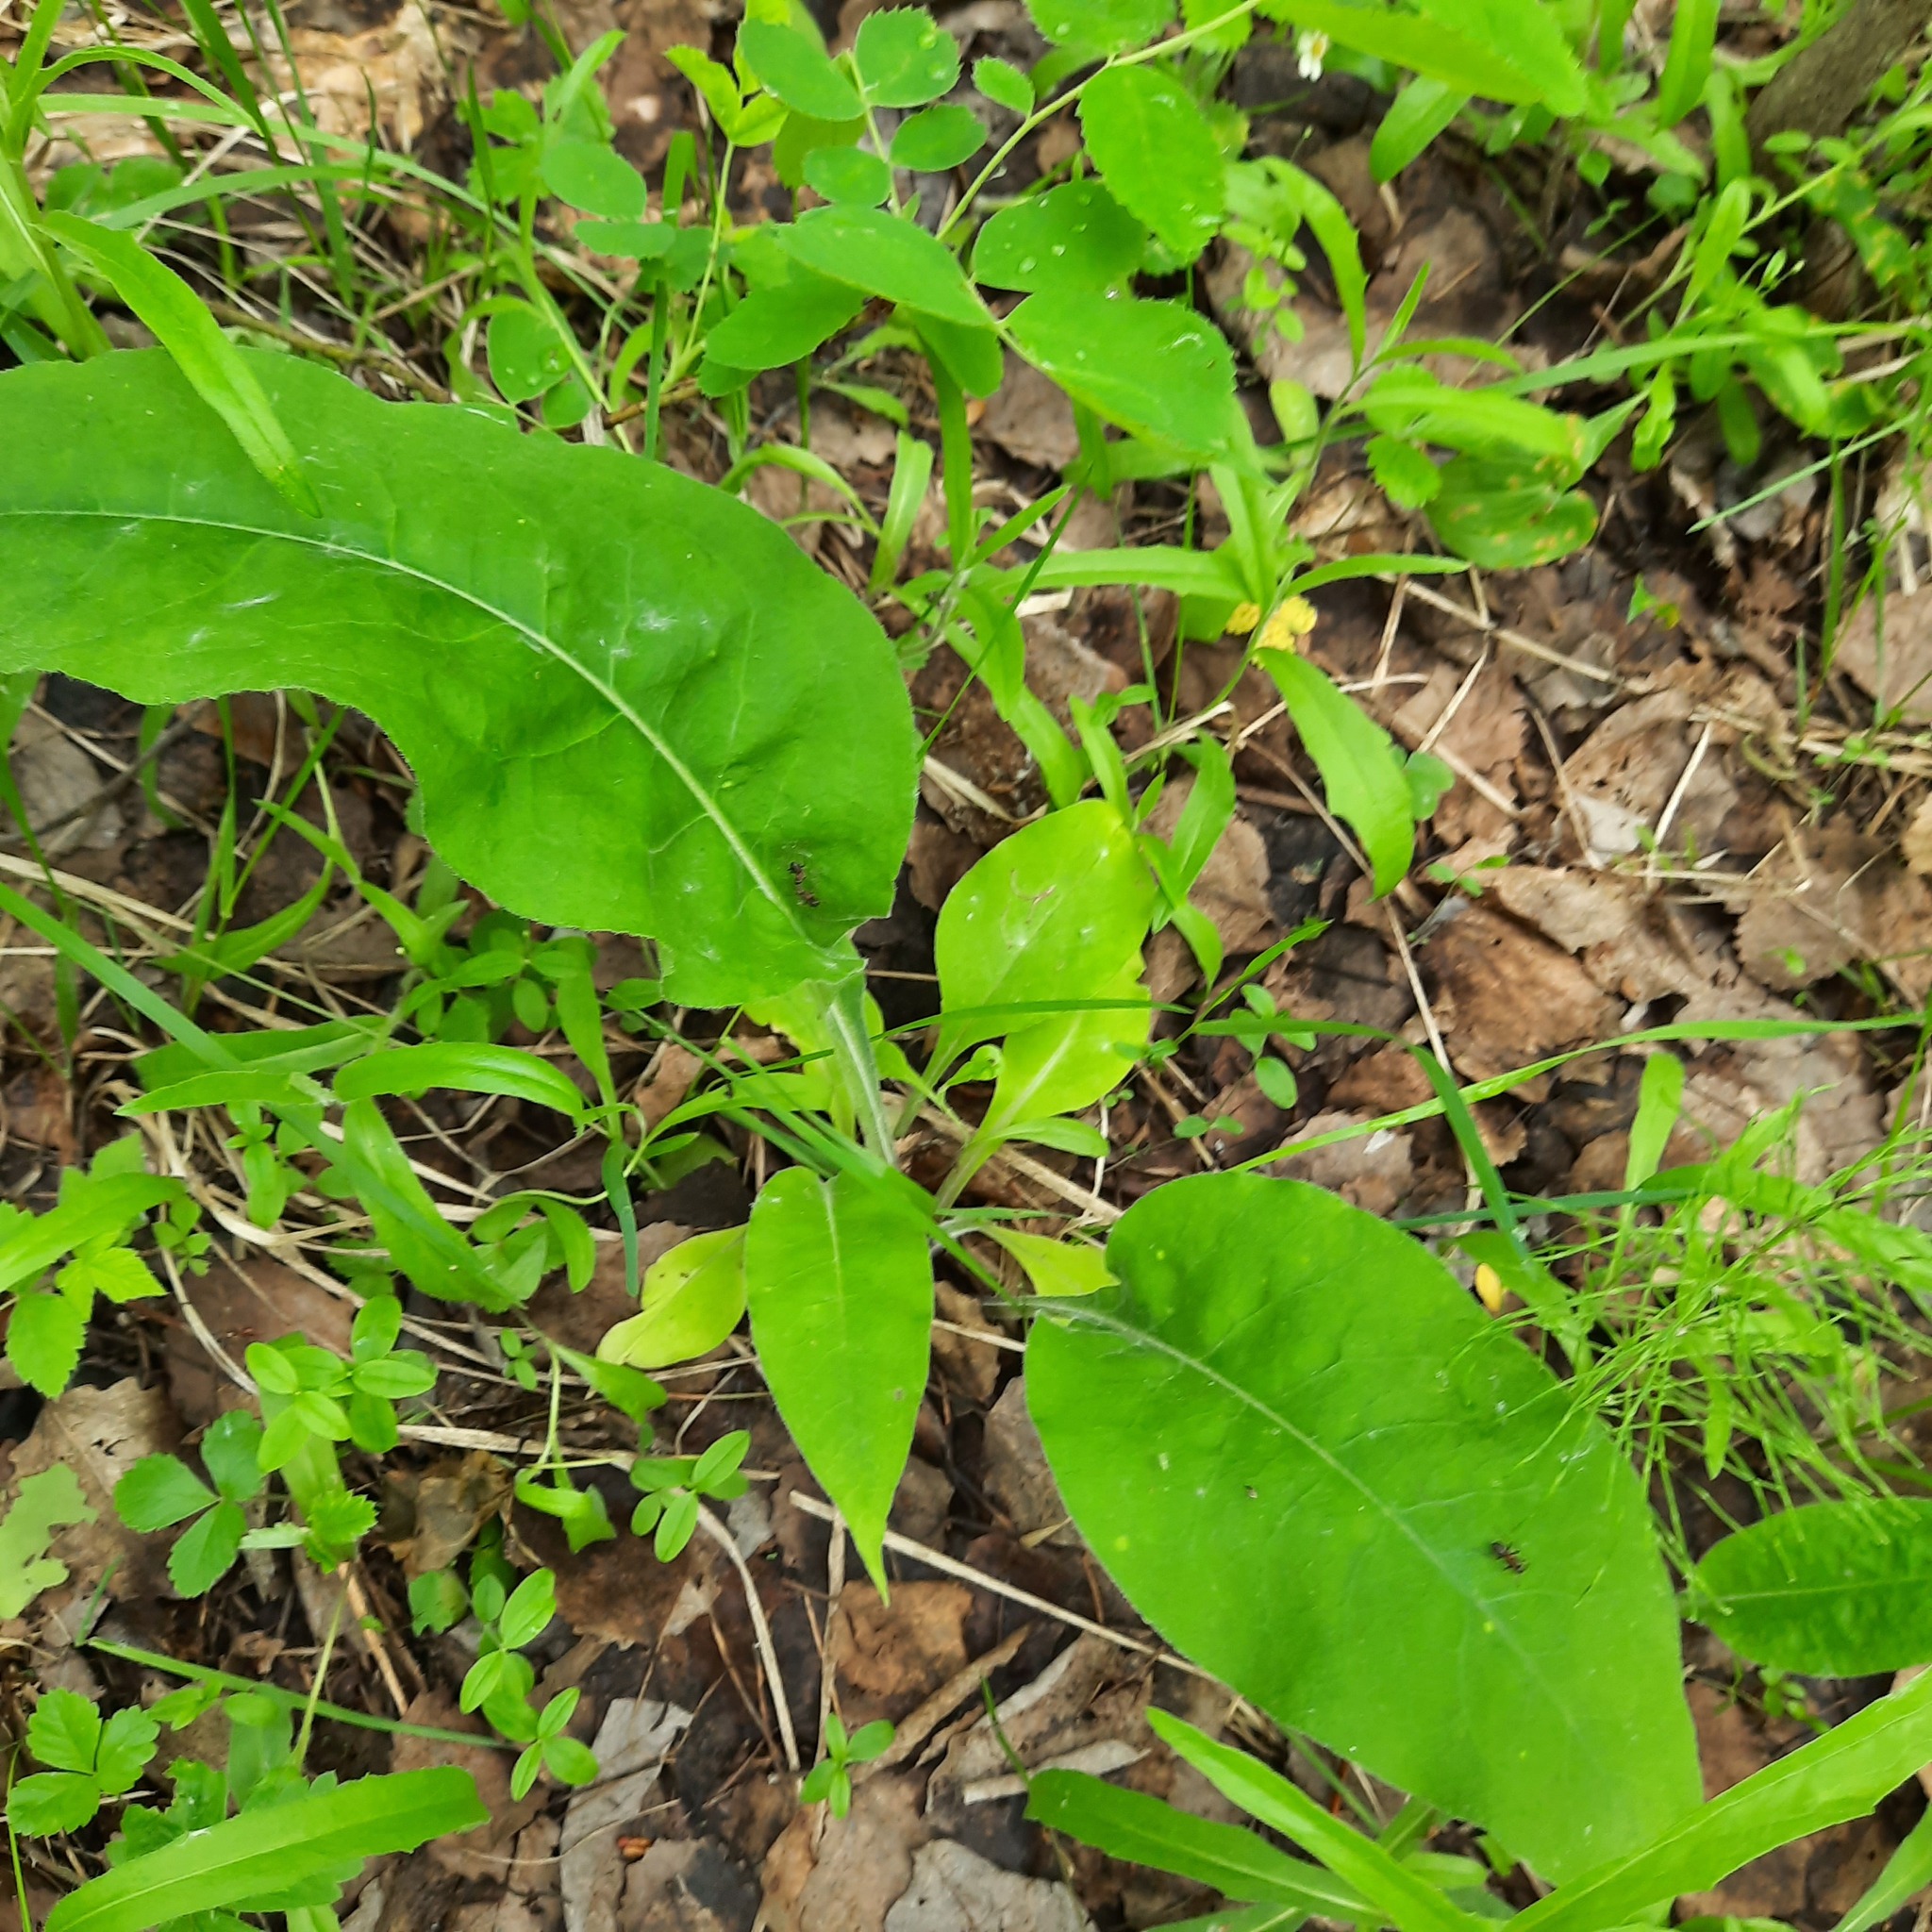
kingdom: Plantae
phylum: Tracheophyta
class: Magnoliopsida
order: Boraginales
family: Boraginaceae
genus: Pulmonaria
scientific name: Pulmonaria mollis
